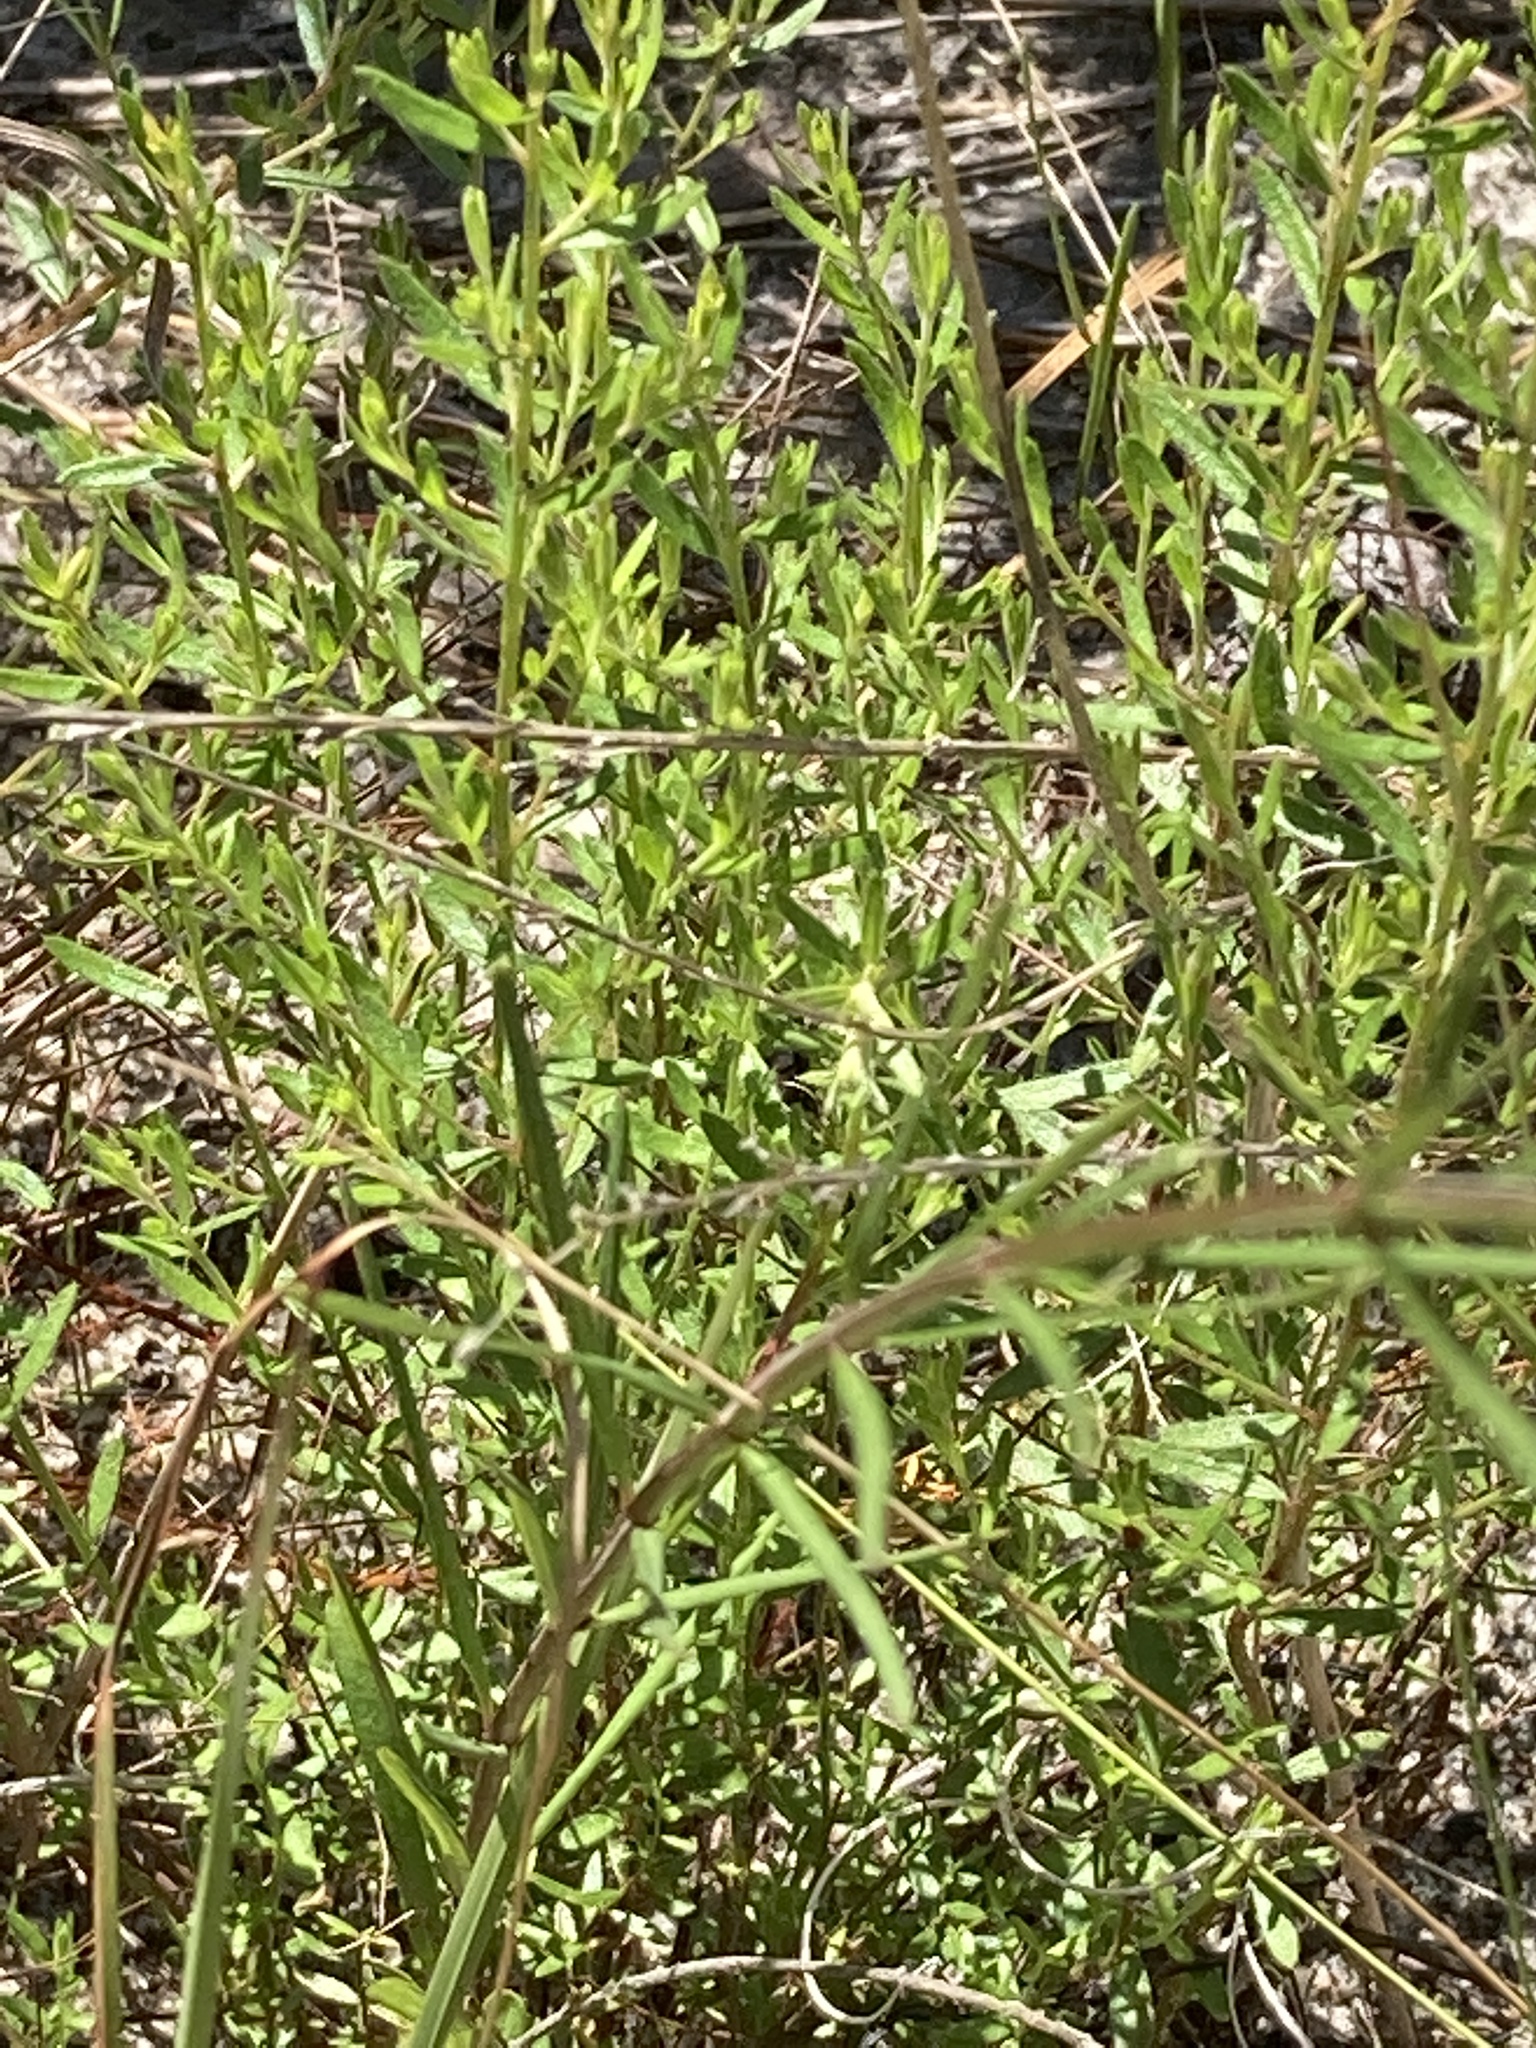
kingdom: Plantae
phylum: Tracheophyta
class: Magnoliopsida
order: Gentianales
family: Apocynaceae
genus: Asclepias
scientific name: Asclepias verticillata
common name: Eastern whorled milkweed
